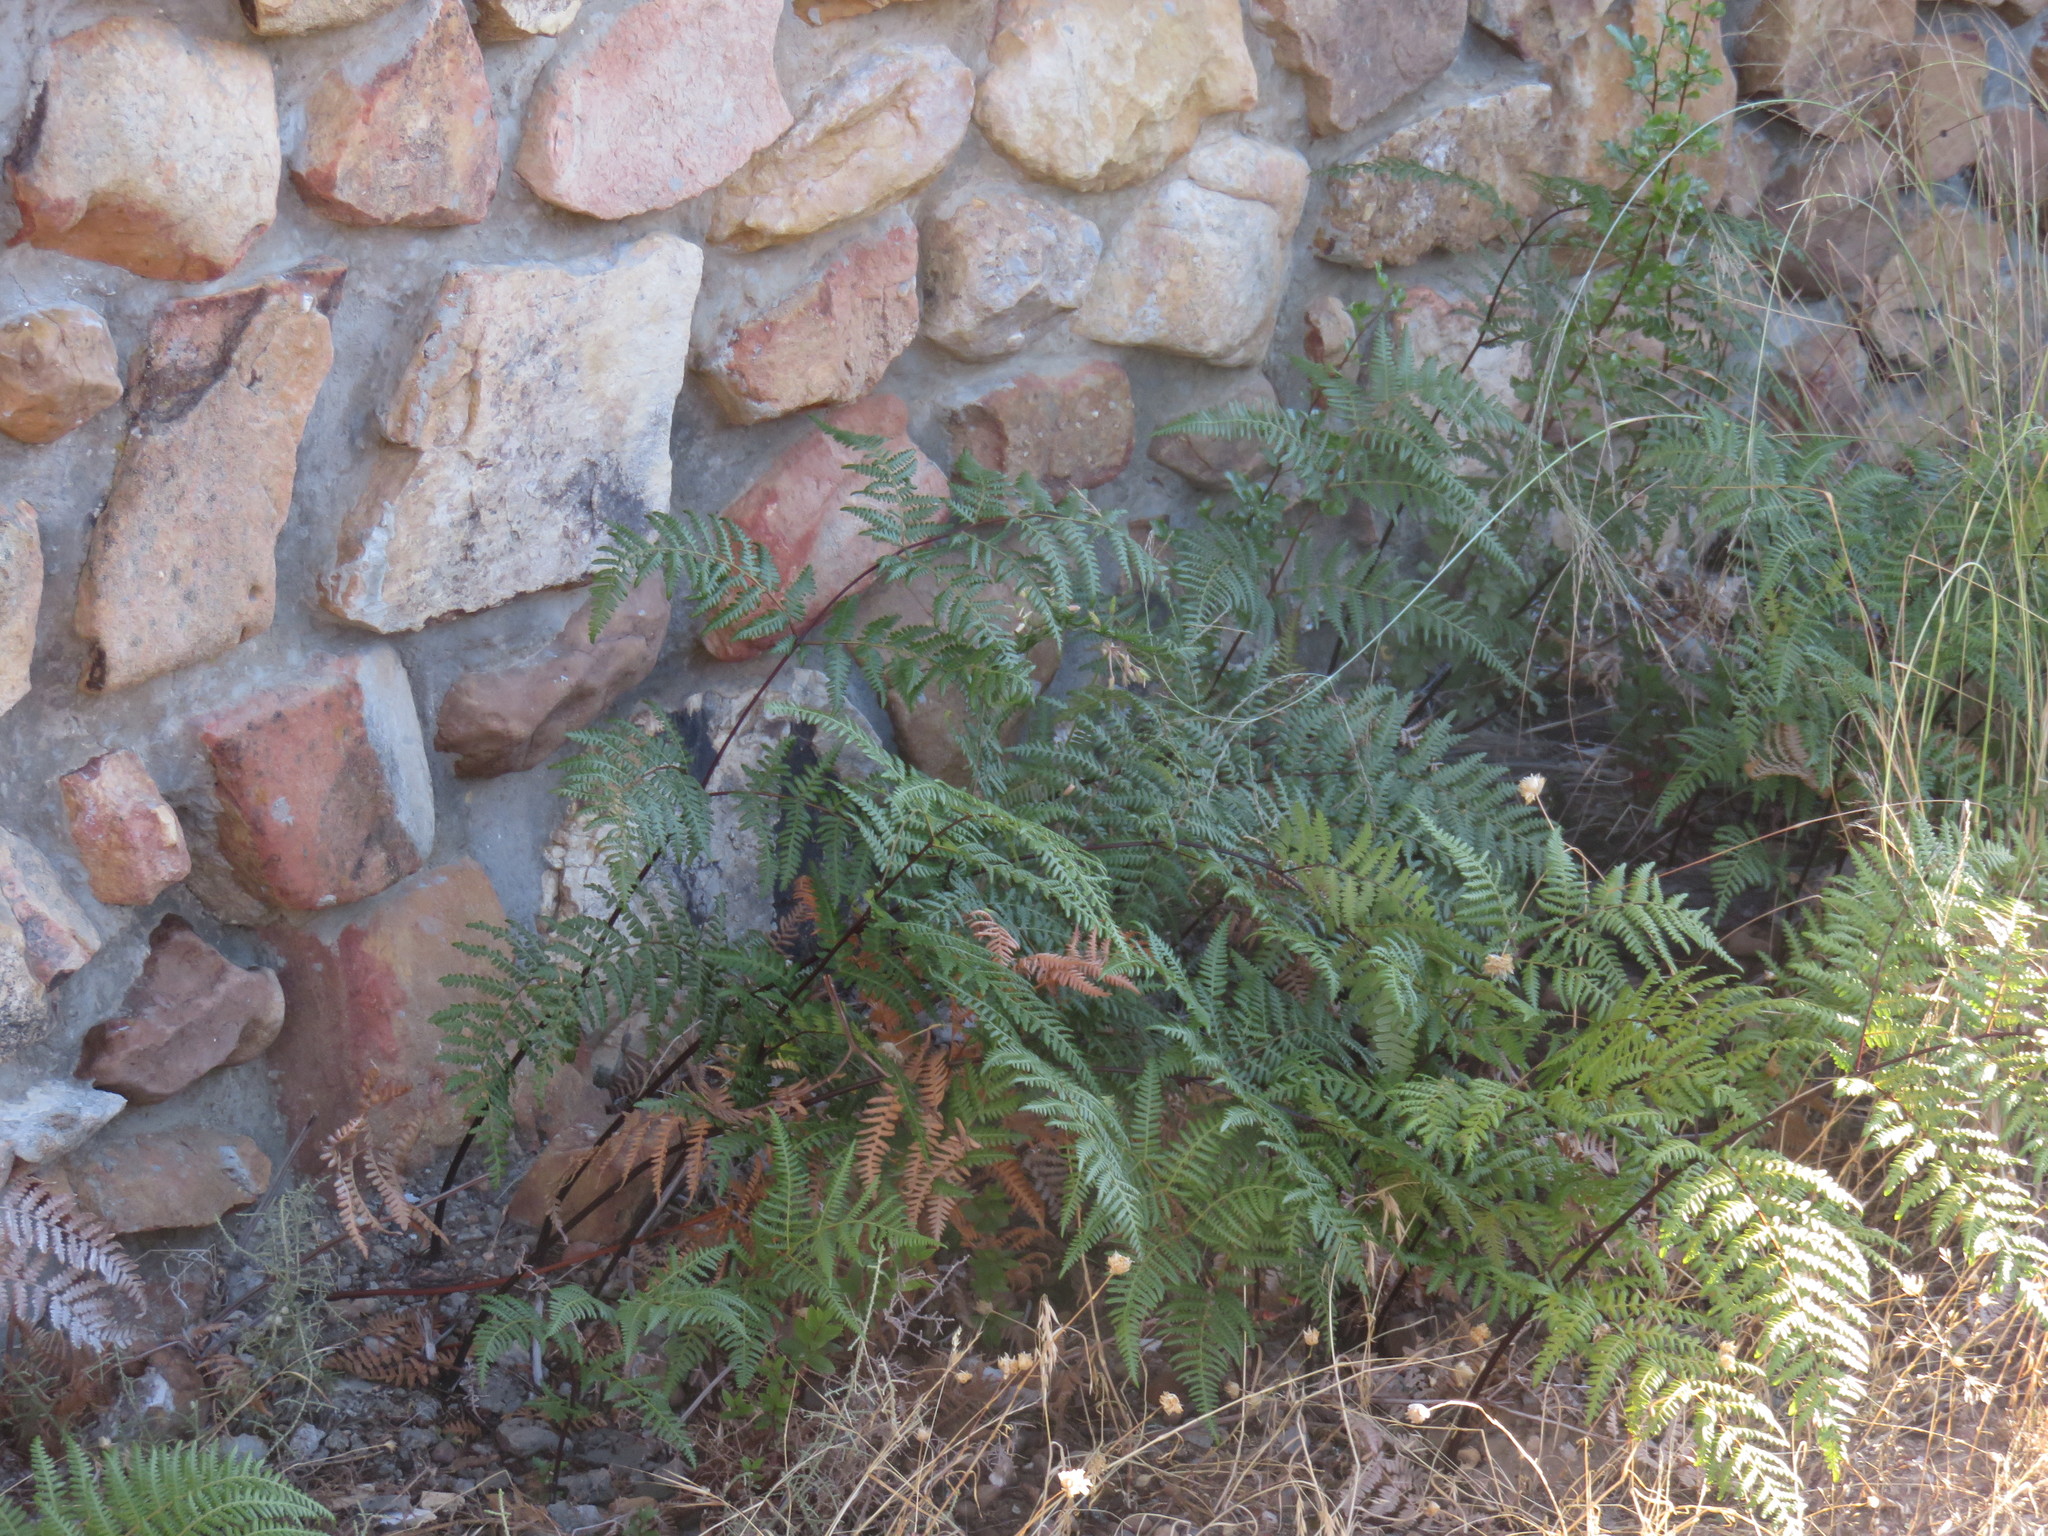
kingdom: Plantae
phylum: Tracheophyta
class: Polypodiopsida
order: Polypodiales
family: Dennstaedtiaceae
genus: Pteridium
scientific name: Pteridium aquilinum
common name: Bracken
